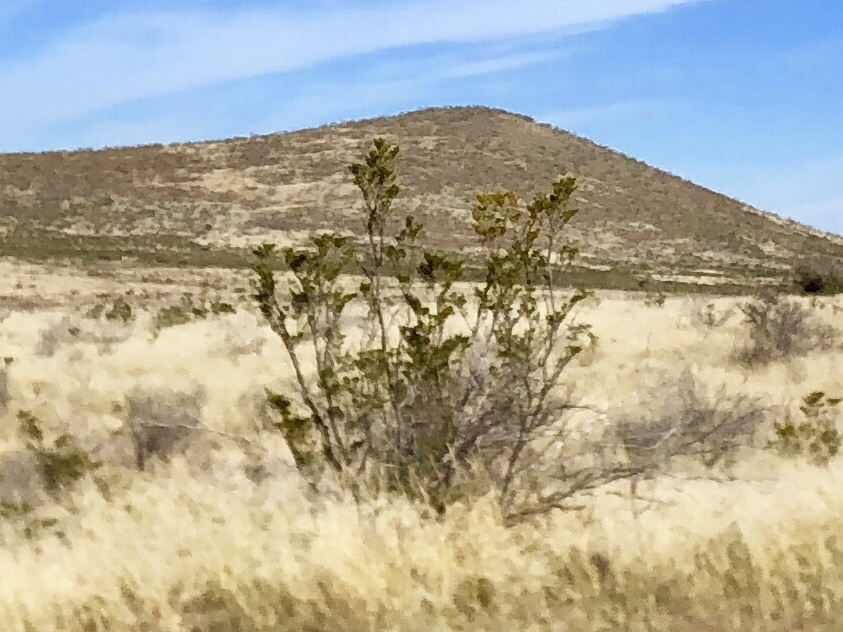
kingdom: Plantae
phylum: Tracheophyta
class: Magnoliopsida
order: Zygophyllales
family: Zygophyllaceae
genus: Larrea
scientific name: Larrea tridentata
